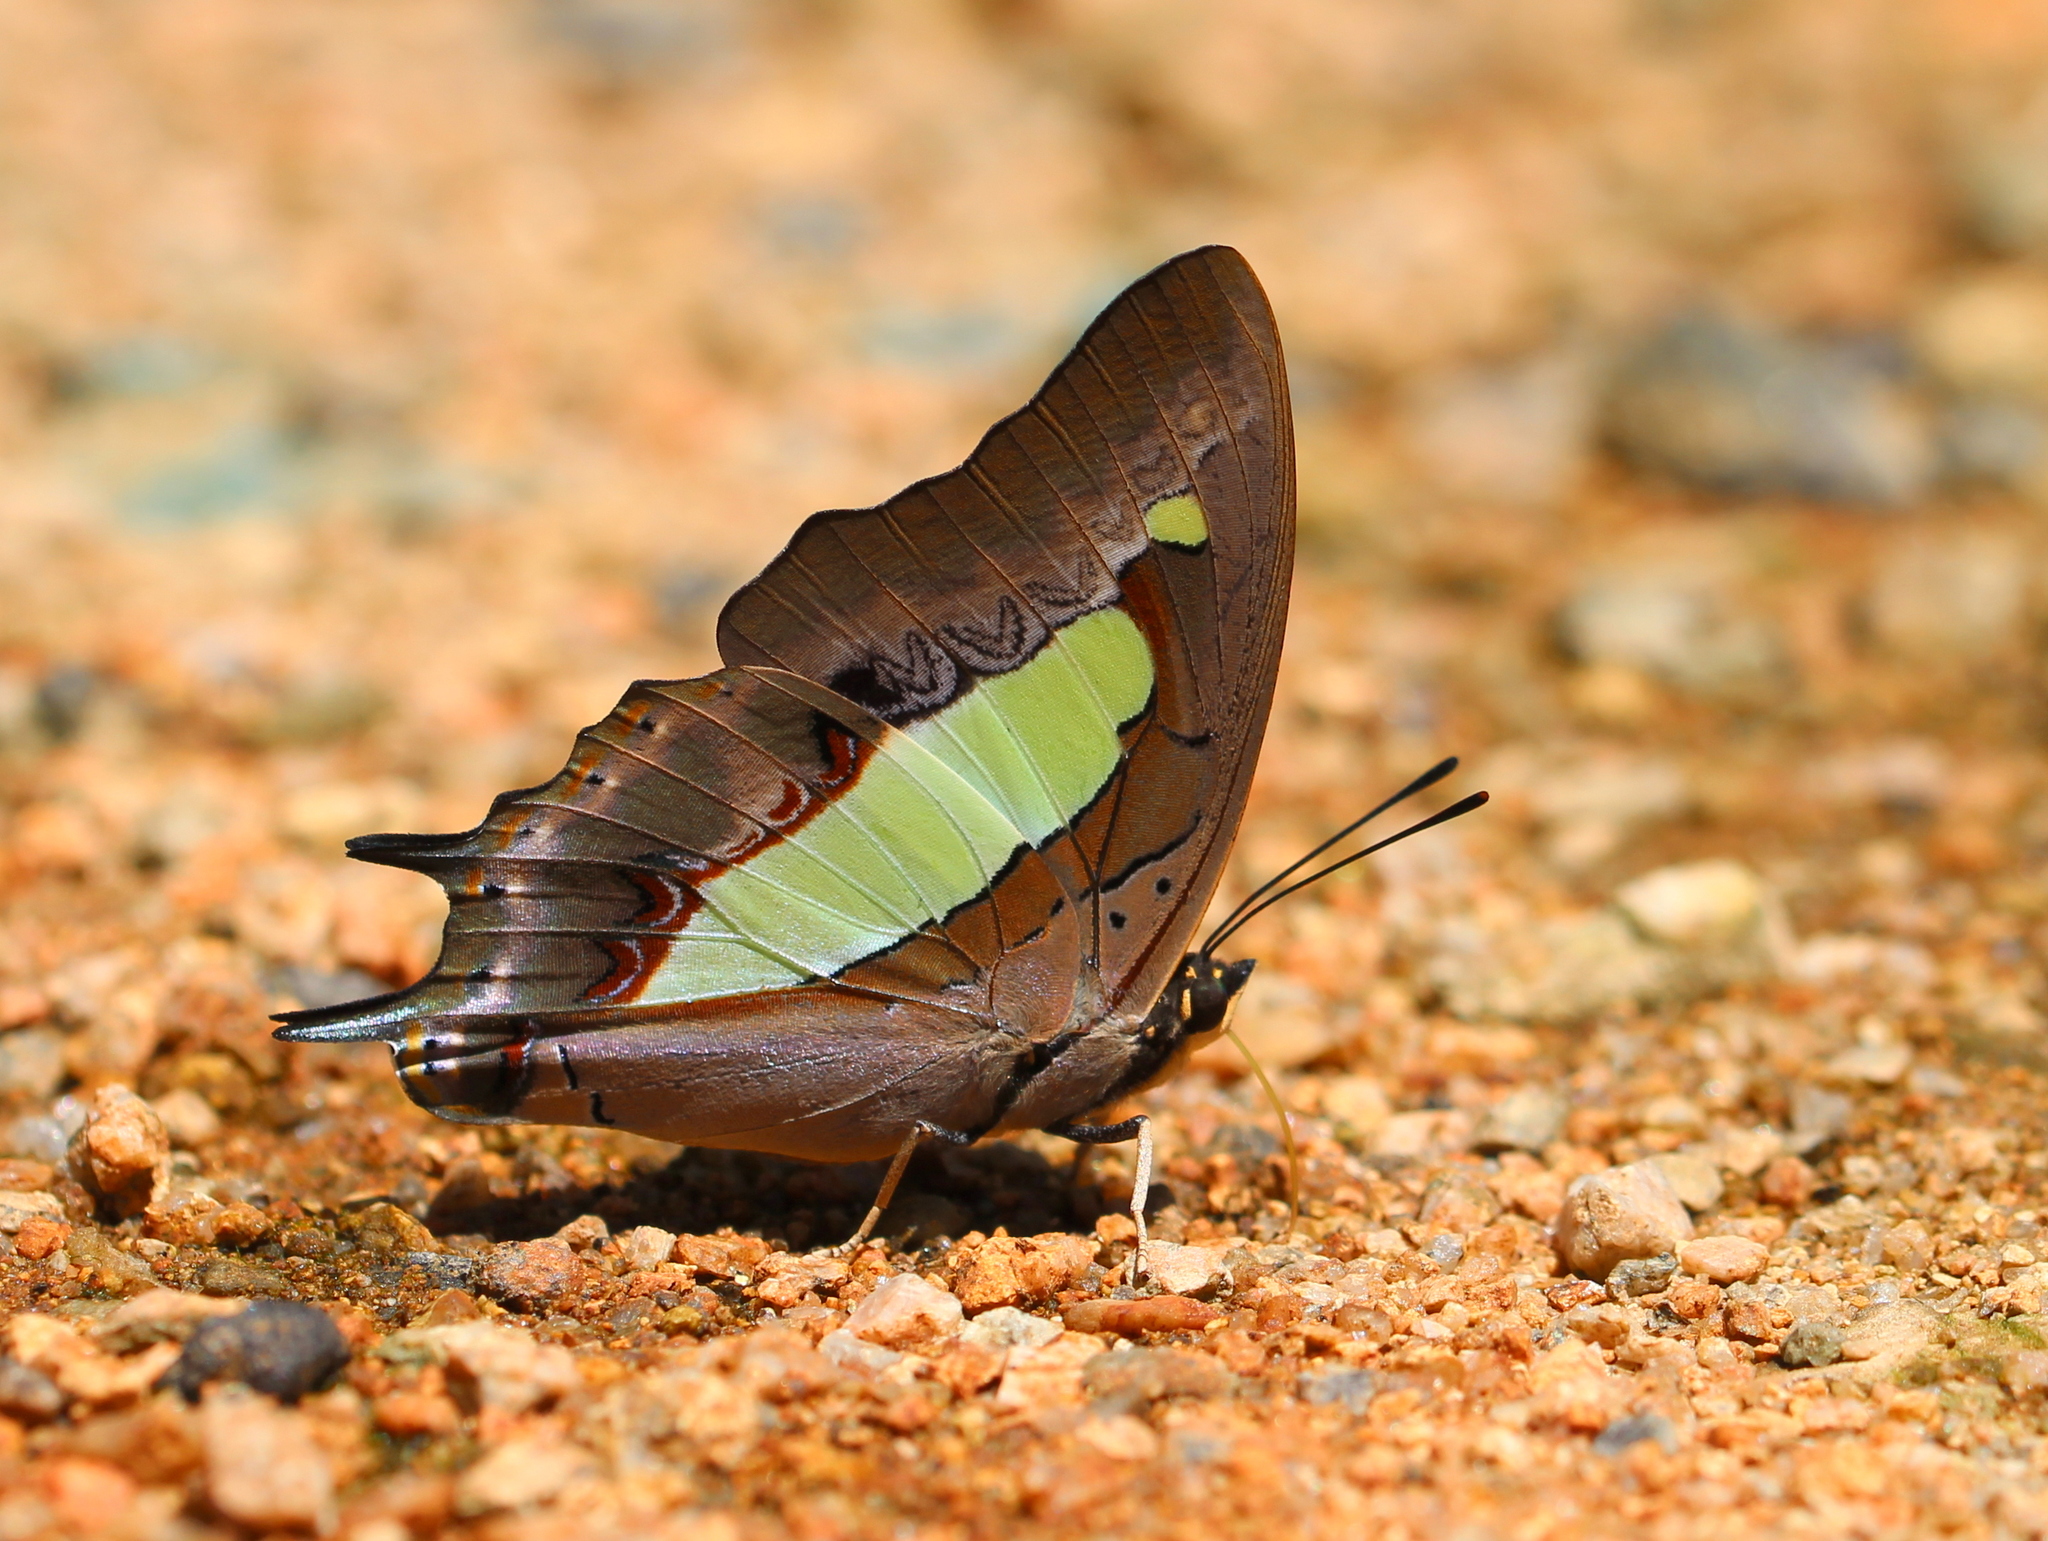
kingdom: Animalia
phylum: Arthropoda
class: Insecta
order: Lepidoptera
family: Nymphalidae
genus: Polyura
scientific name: Polyura
